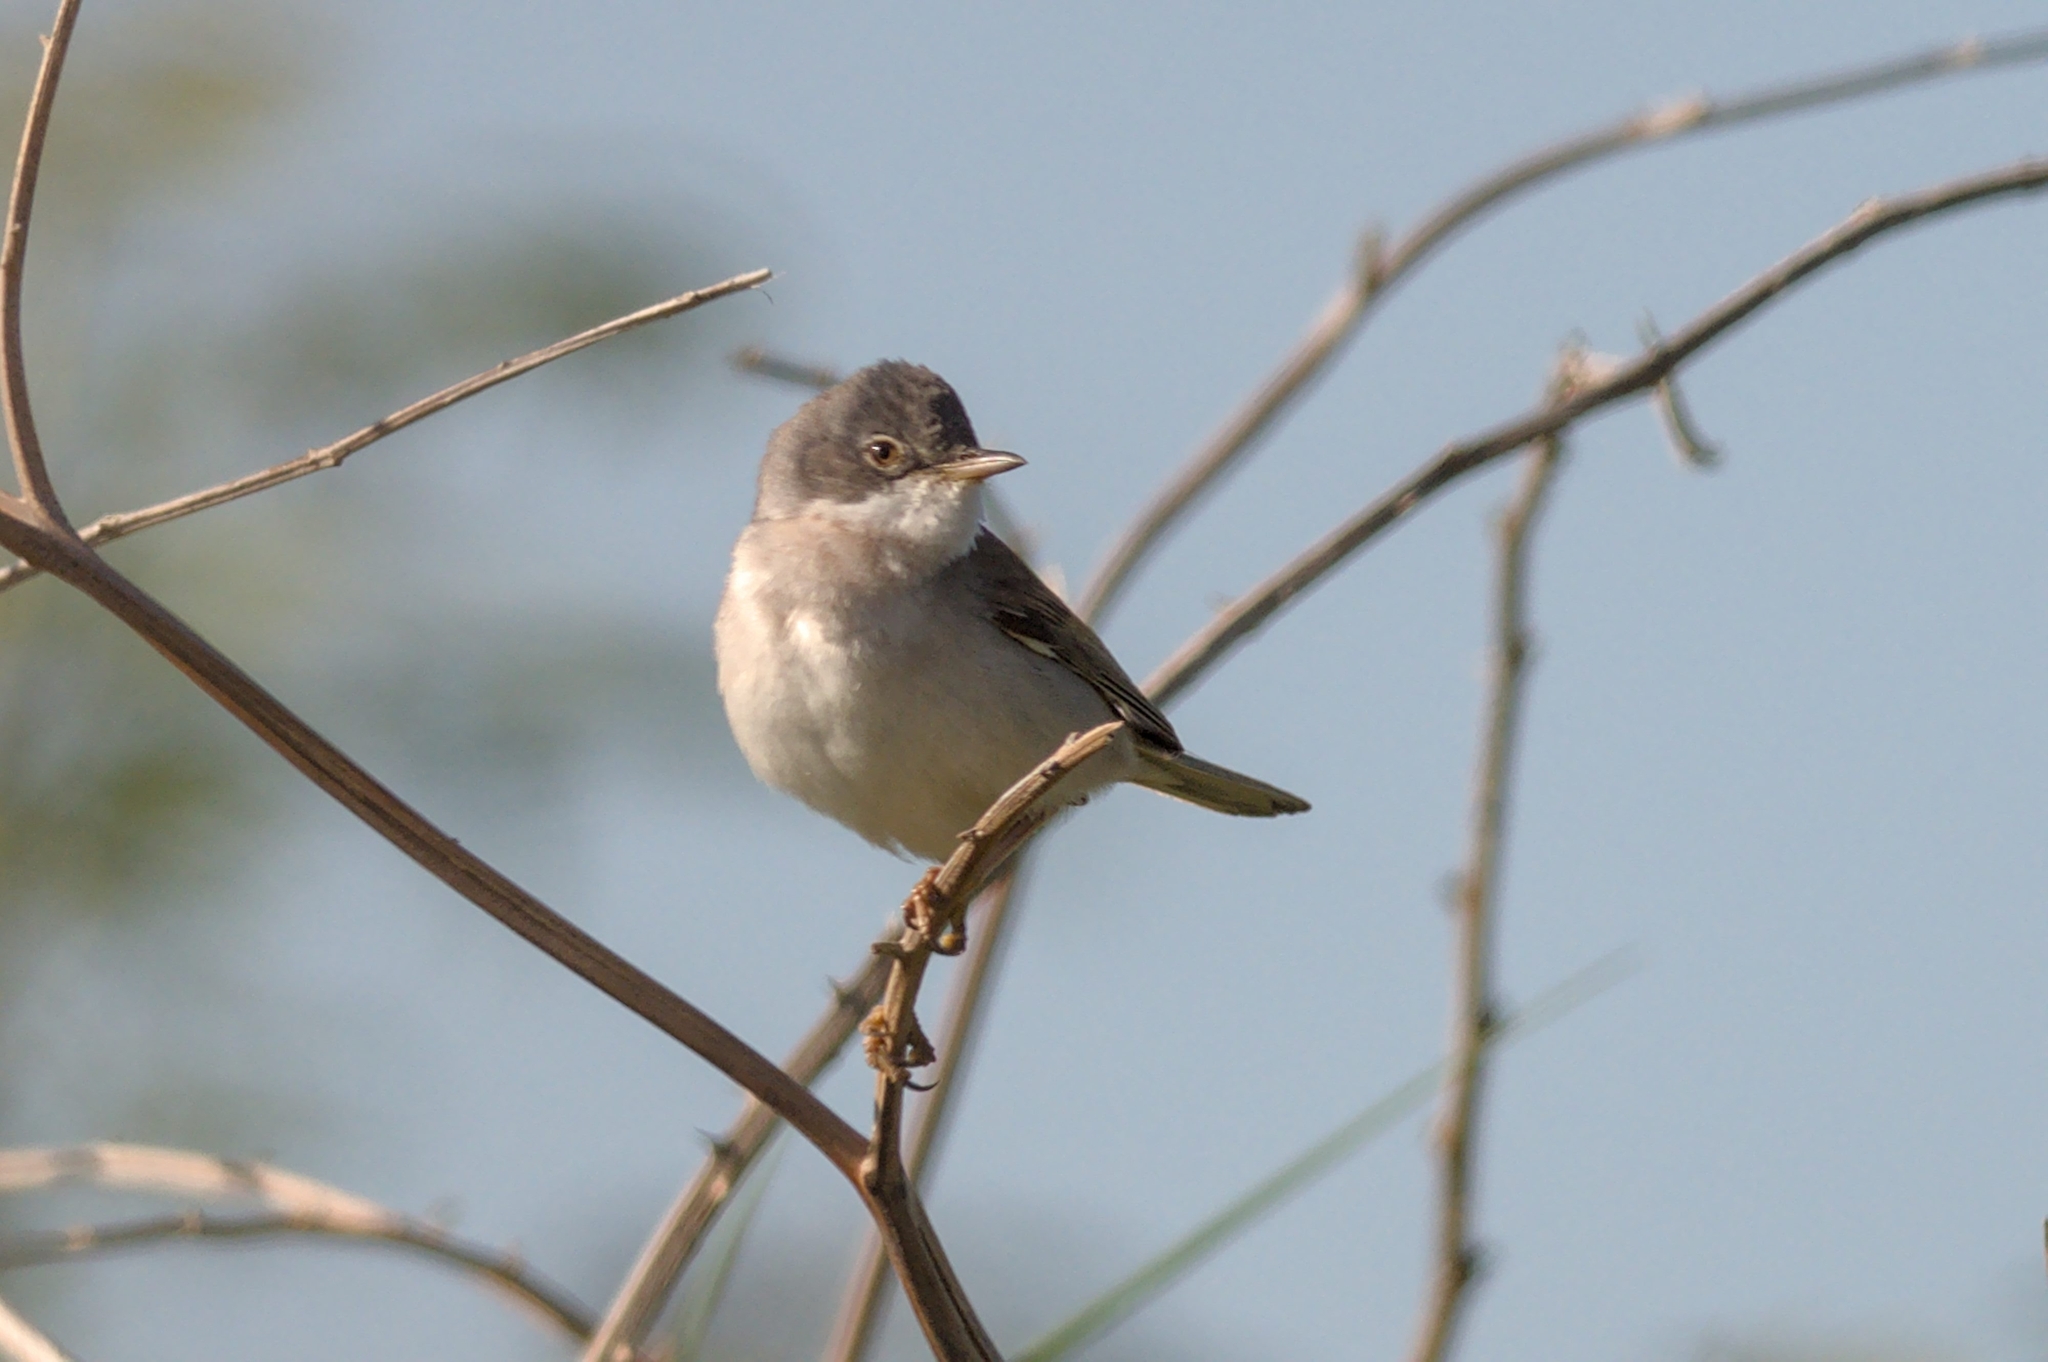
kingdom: Animalia
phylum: Chordata
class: Aves
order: Passeriformes
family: Sylviidae
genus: Sylvia
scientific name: Sylvia communis
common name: Common whitethroat
